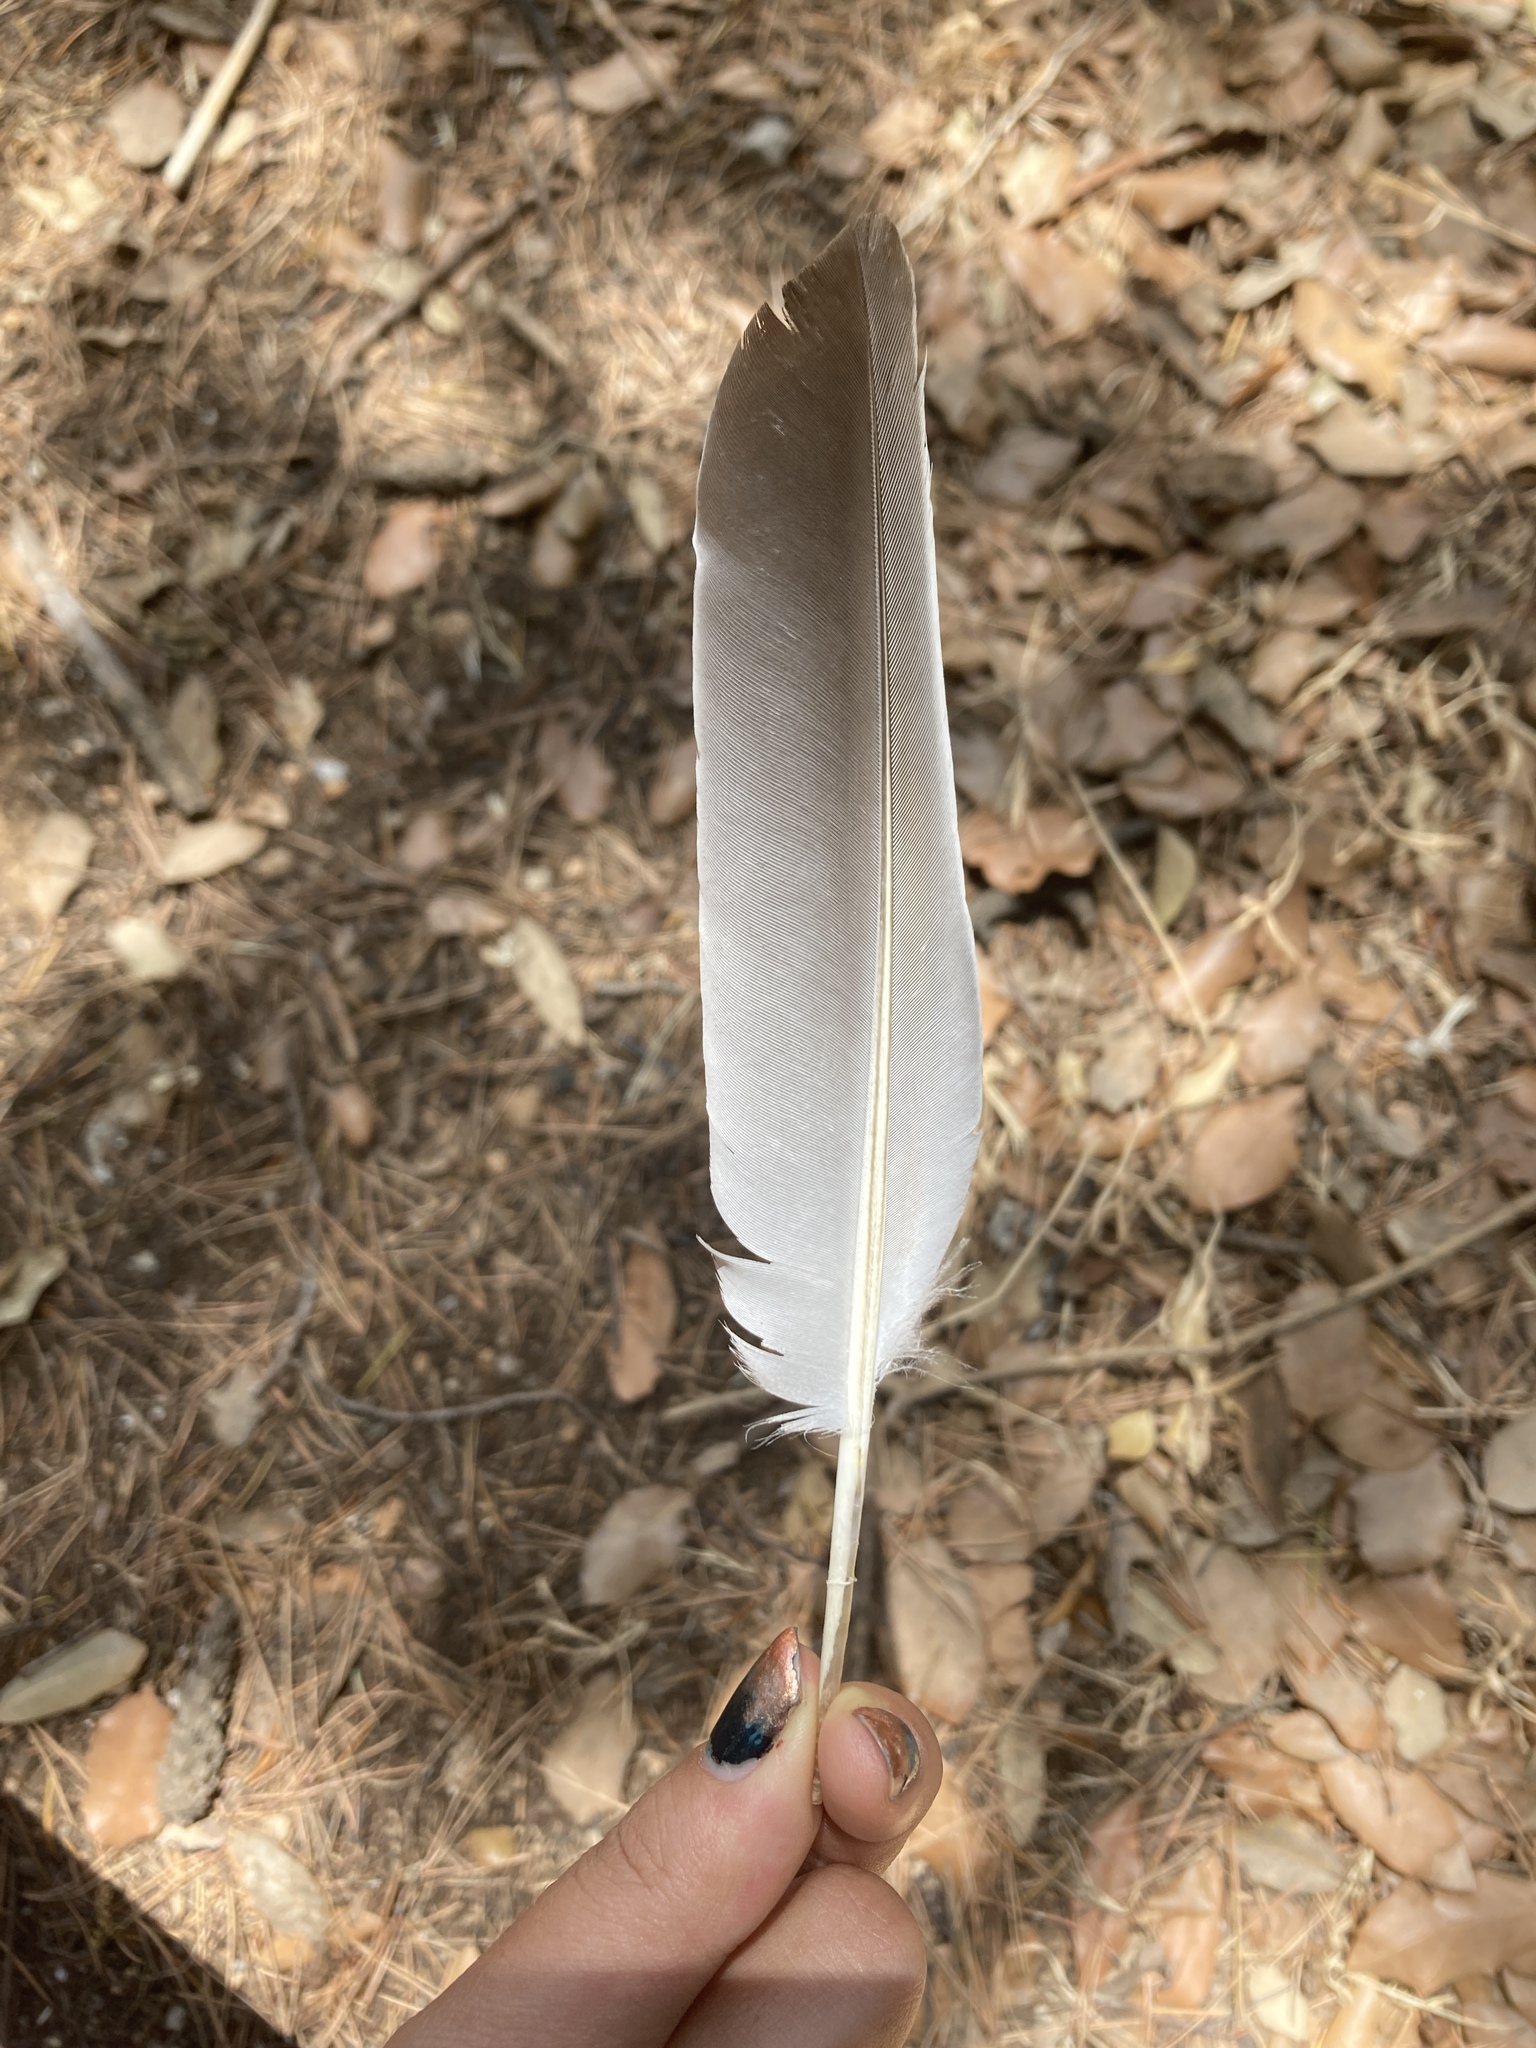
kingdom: Animalia
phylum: Chordata
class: Aves
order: Columbiformes
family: Columbidae
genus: Columba
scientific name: Columba palumbus
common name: Common wood pigeon
